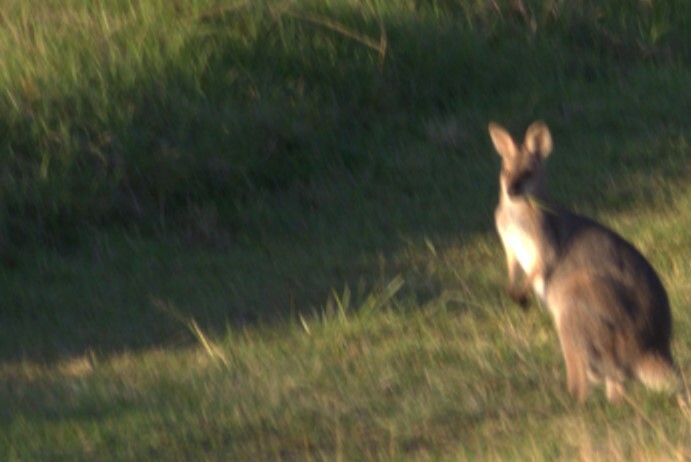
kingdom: Animalia
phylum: Chordata
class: Mammalia
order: Diprotodontia
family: Macropodidae
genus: Notamacropus
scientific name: Notamacropus rufogriseus
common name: Red-necked wallaby
